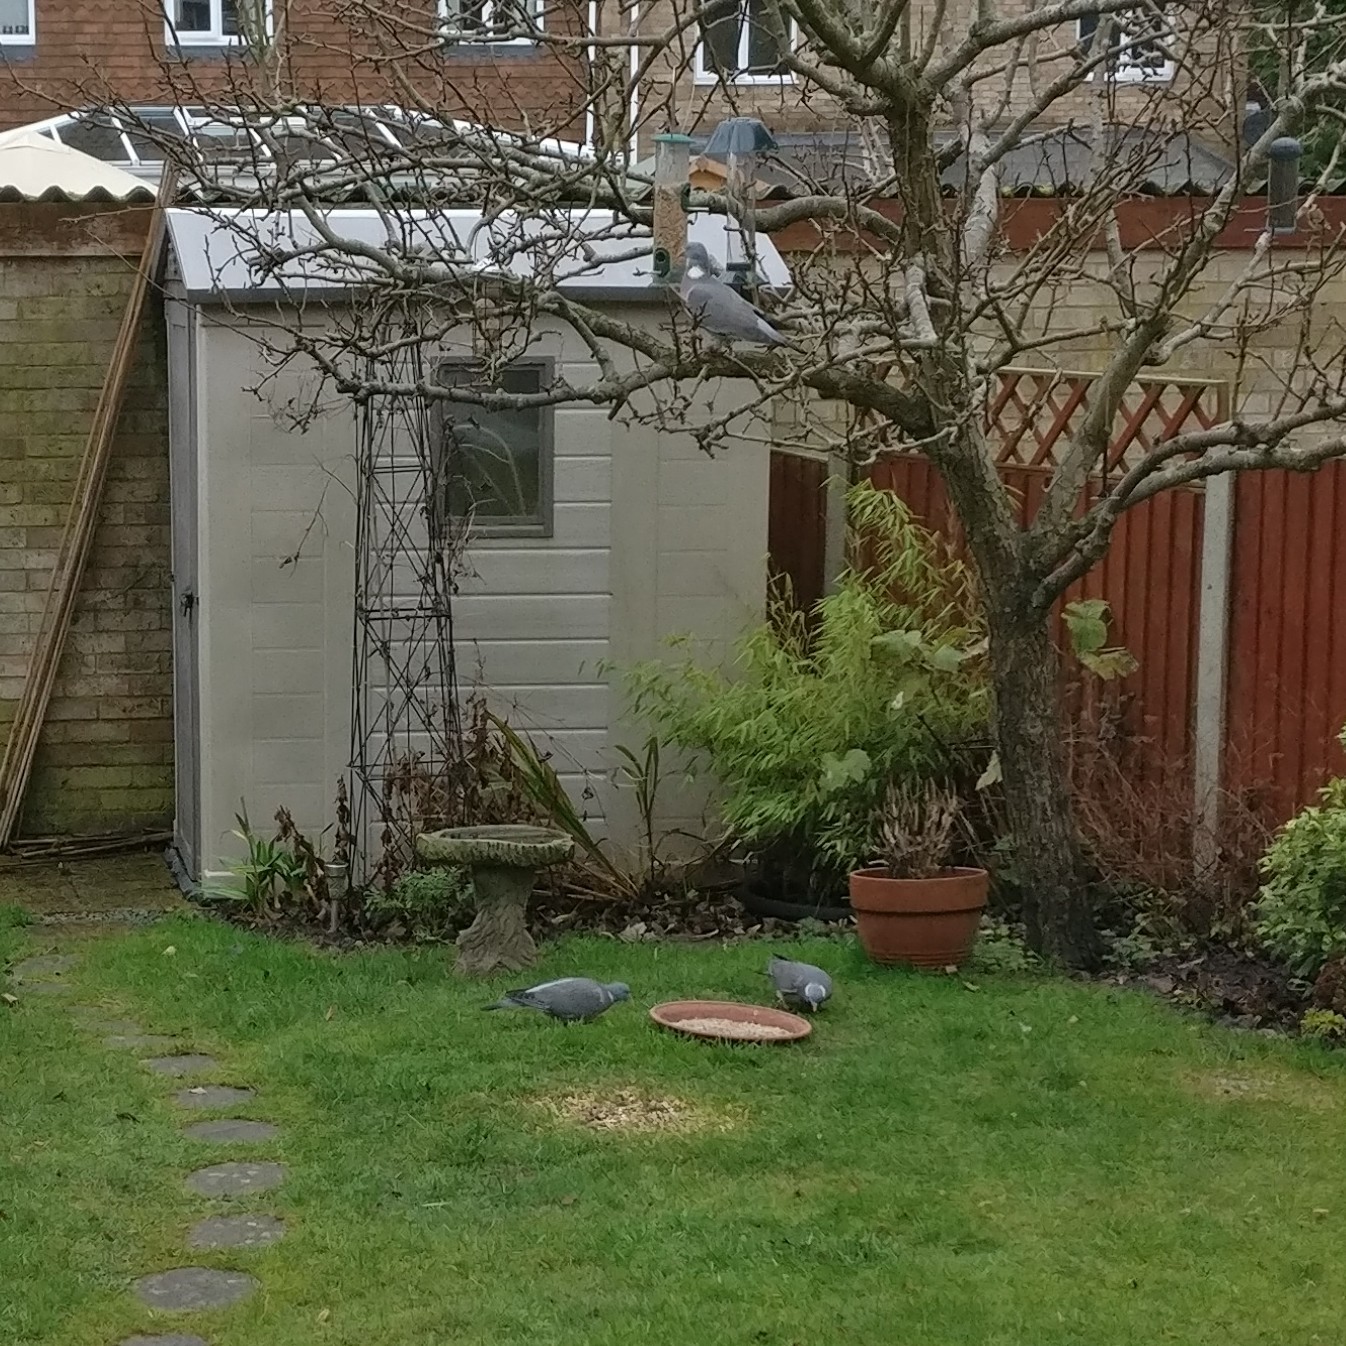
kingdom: Animalia
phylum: Chordata
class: Aves
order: Columbiformes
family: Columbidae
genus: Columba
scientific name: Columba palumbus
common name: Common wood pigeon
